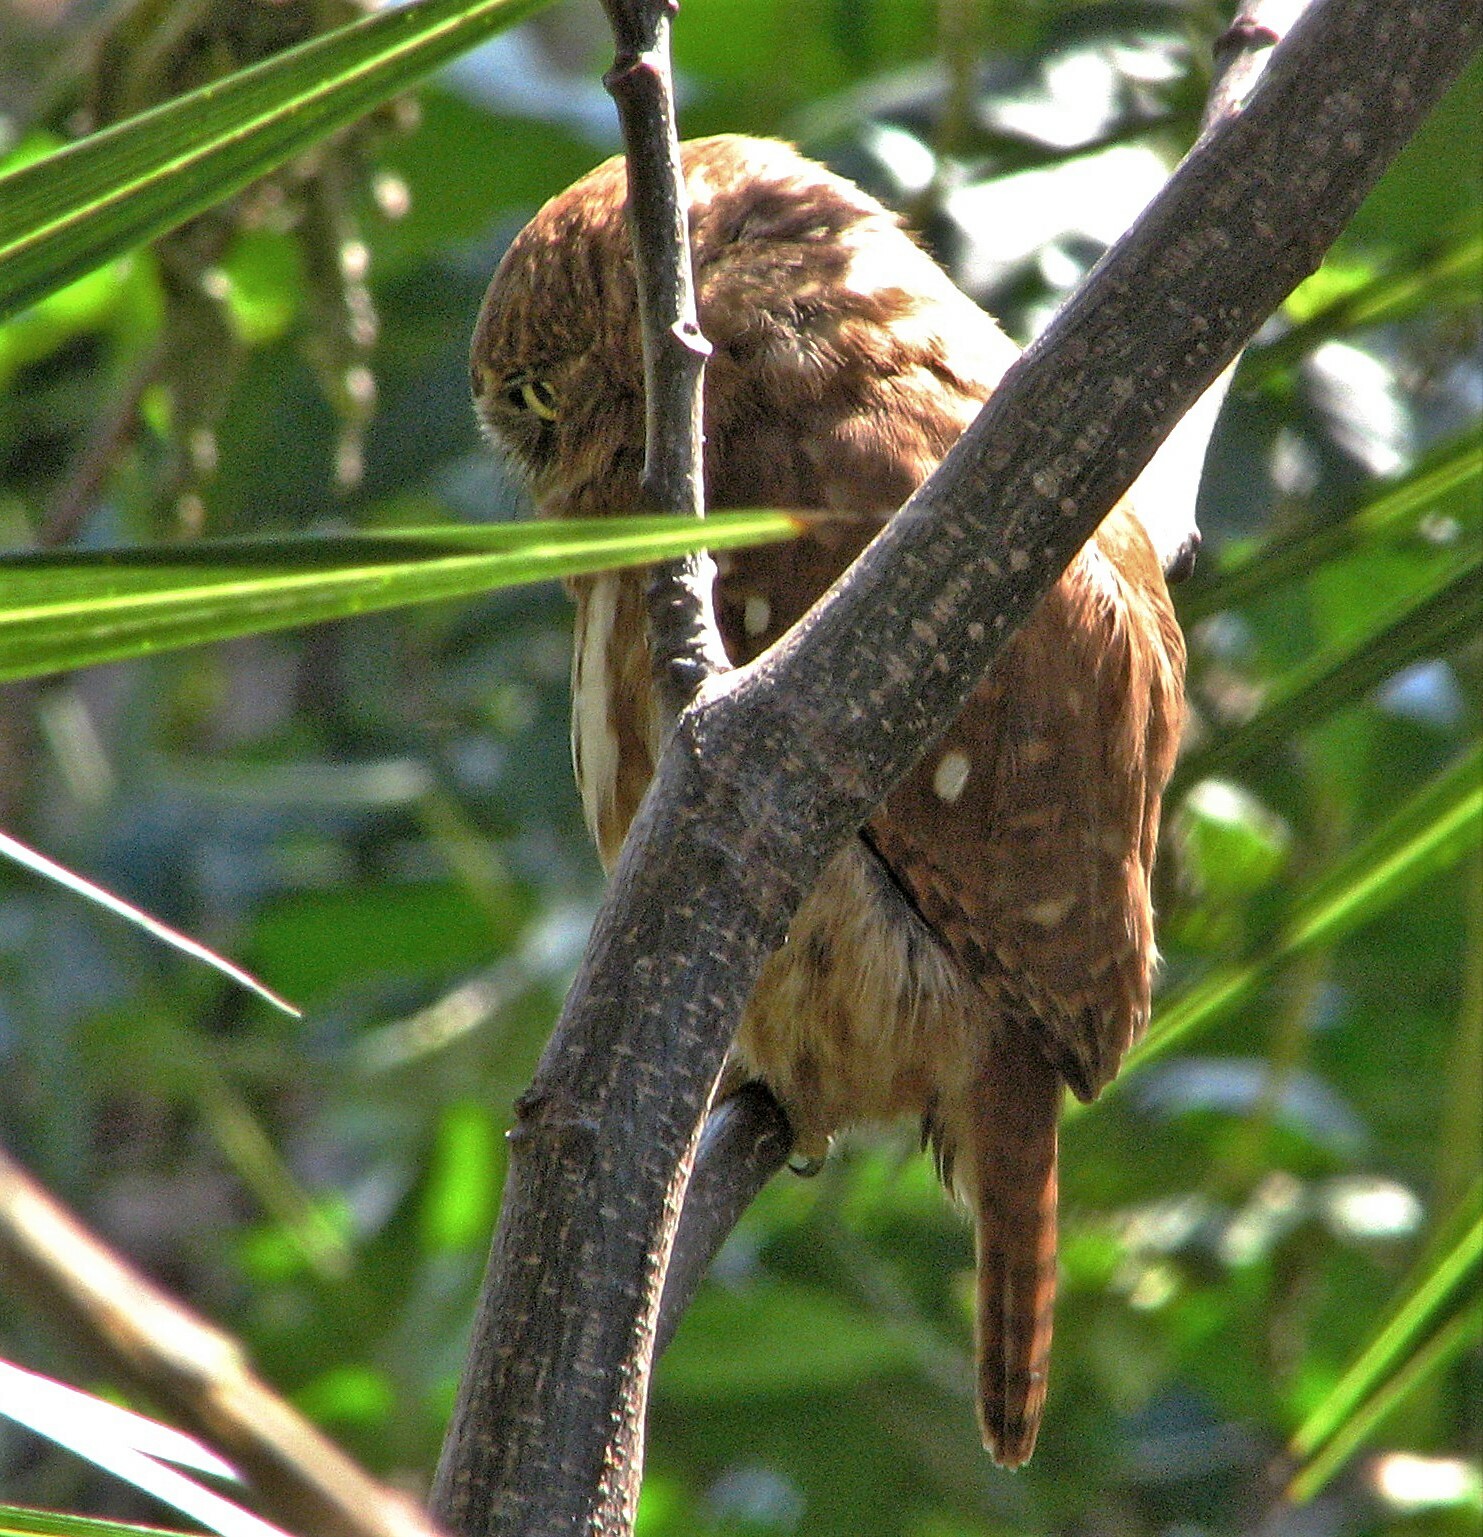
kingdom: Animalia
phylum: Chordata
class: Aves
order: Strigiformes
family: Strigidae
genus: Glaucidium
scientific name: Glaucidium brasilianum
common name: Ferruginous pygmy-owl
